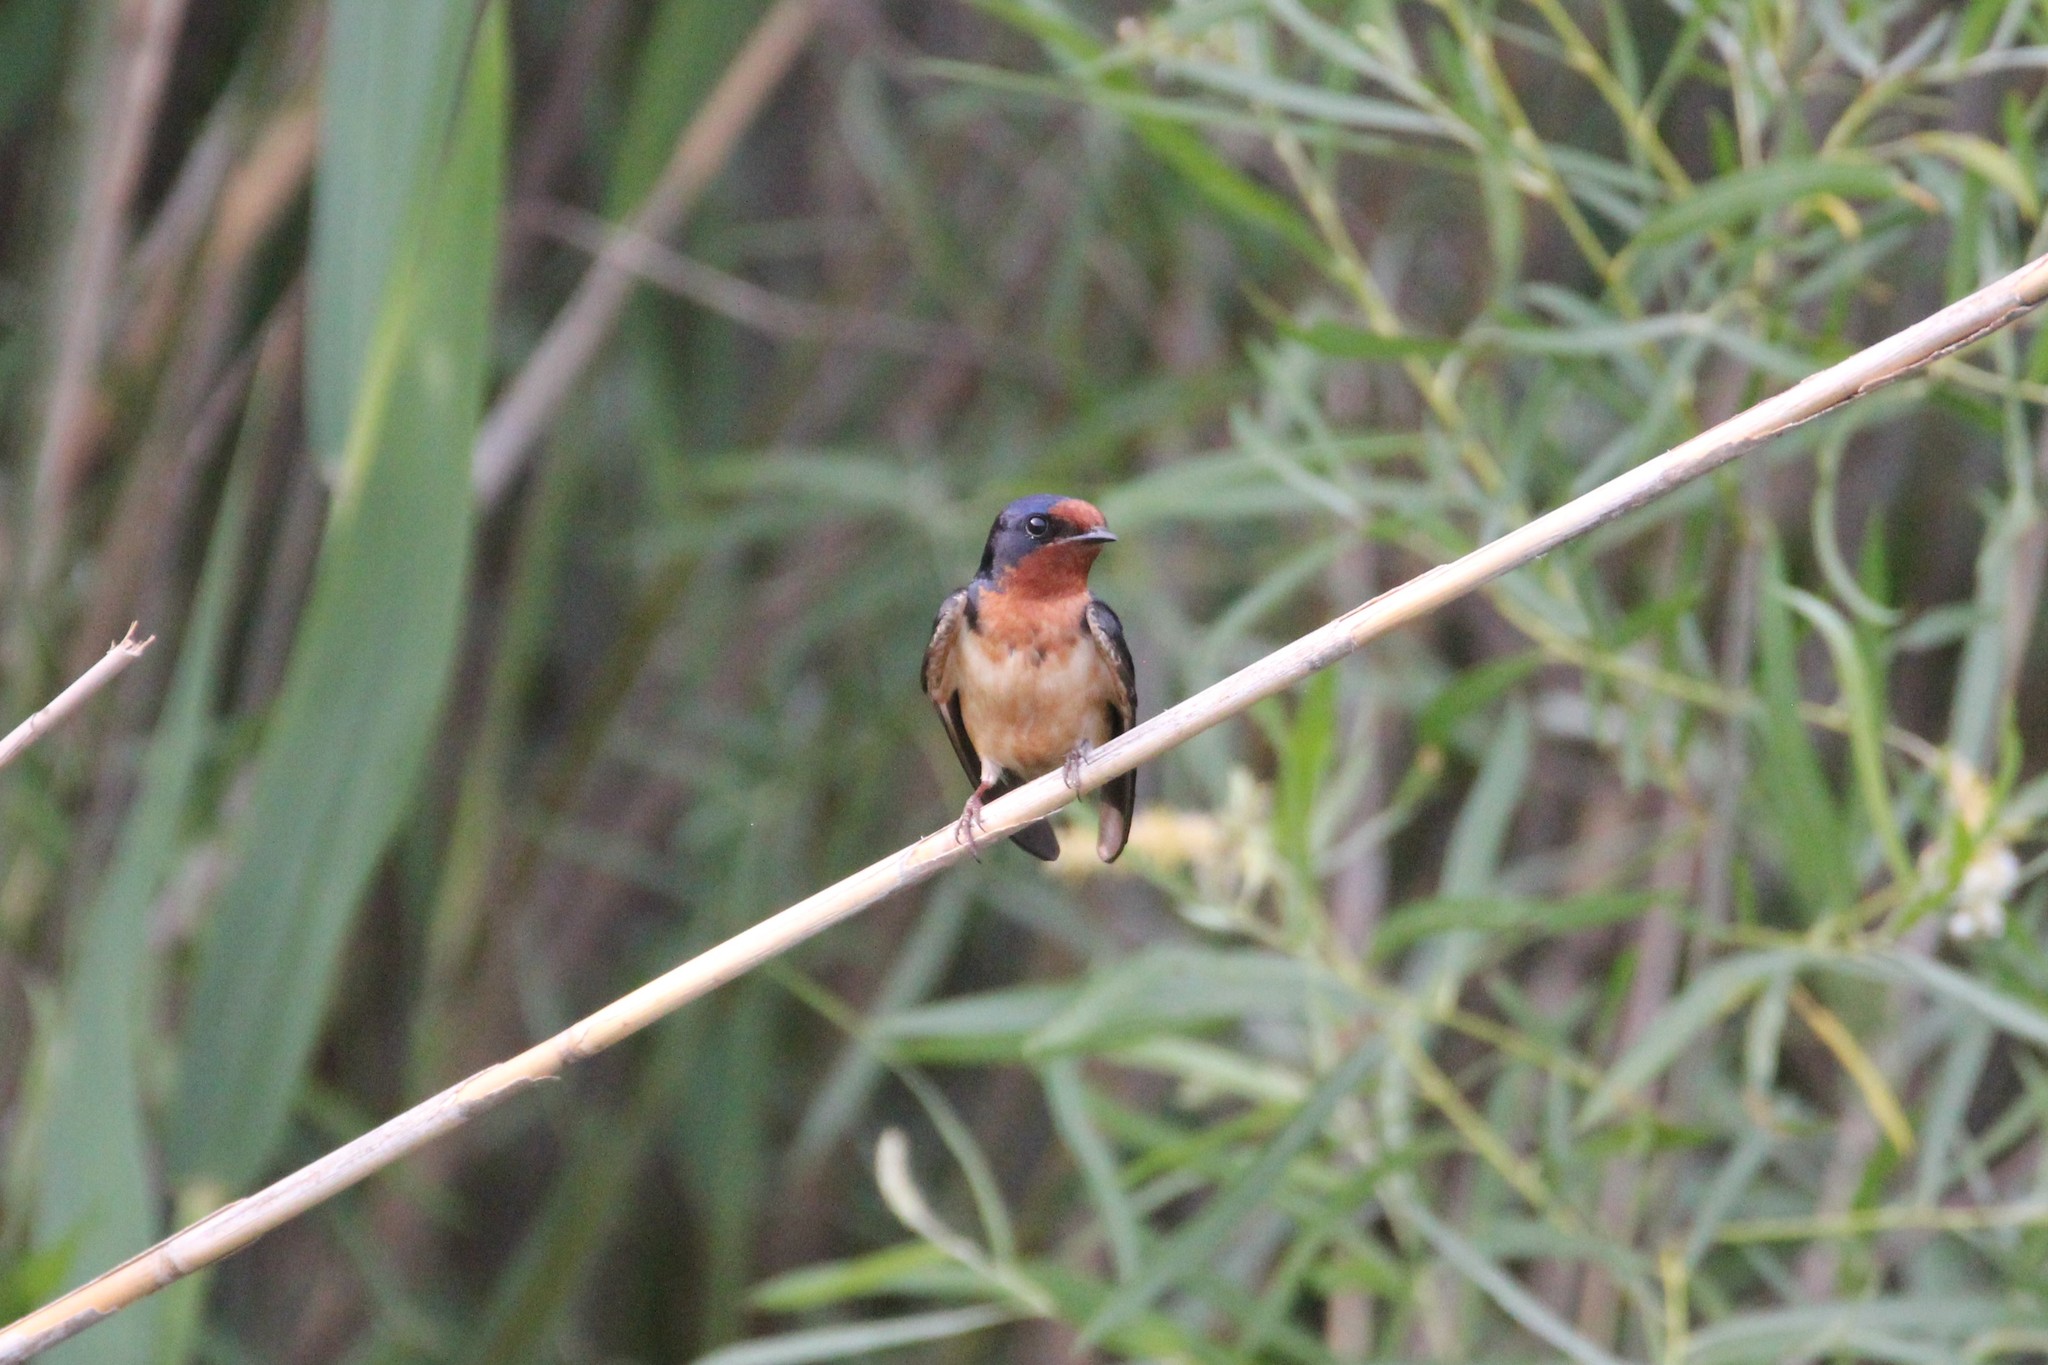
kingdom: Animalia
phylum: Chordata
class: Aves
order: Passeriformes
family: Hirundinidae
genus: Hirundo
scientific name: Hirundo rustica
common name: Barn swallow
